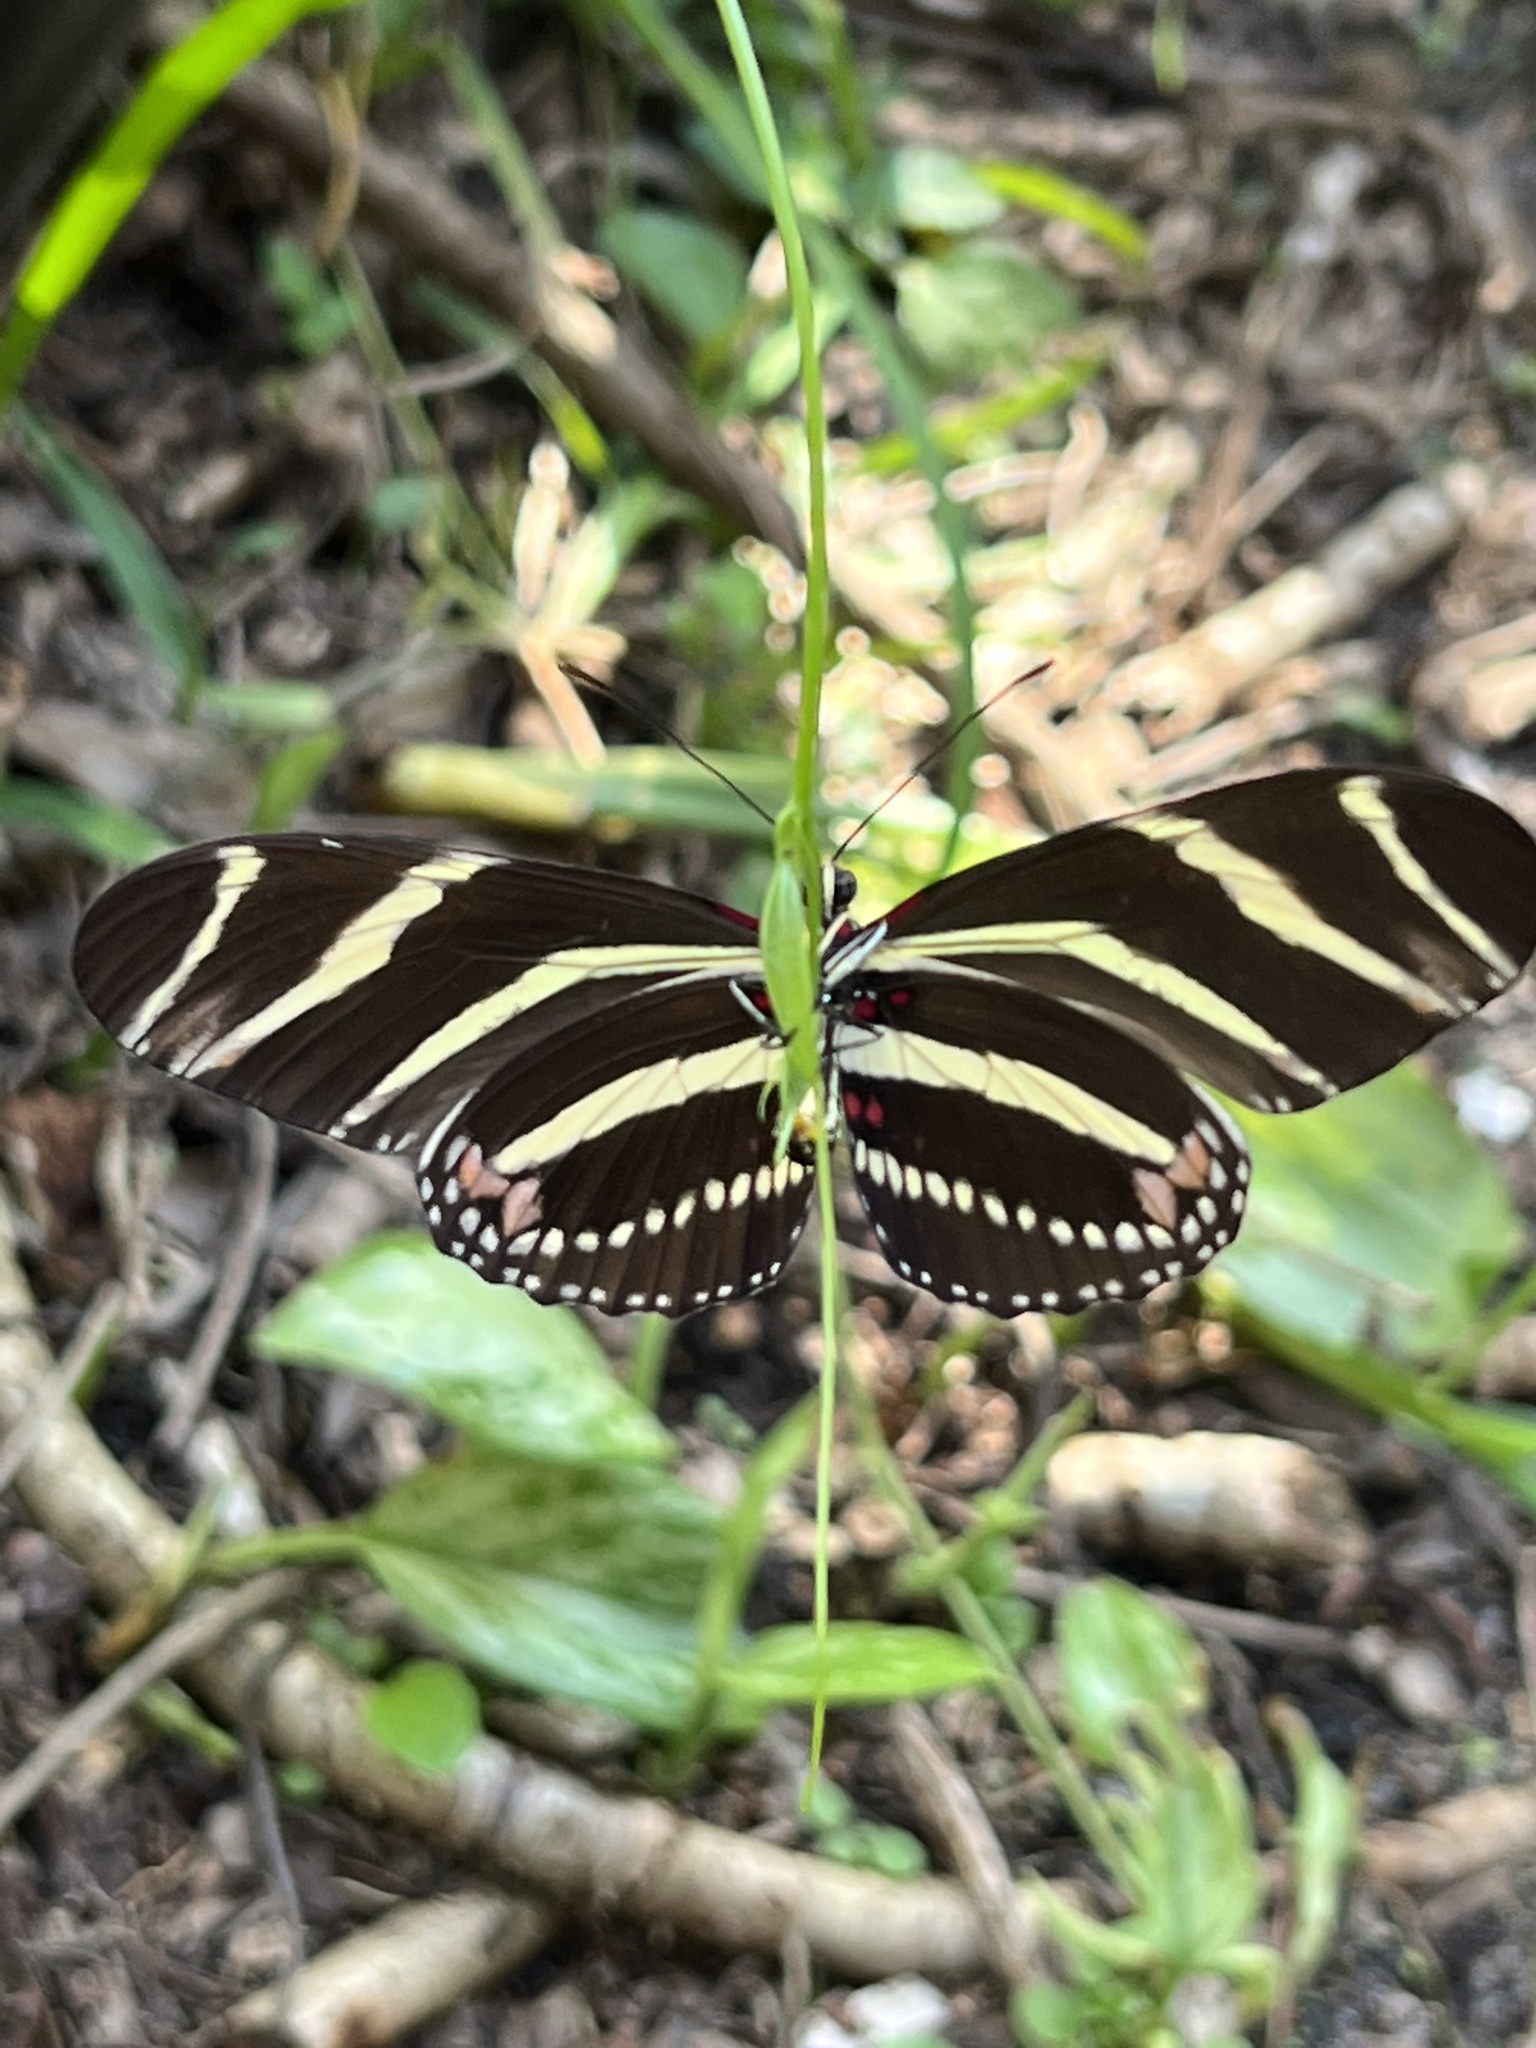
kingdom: Animalia
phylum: Arthropoda
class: Insecta
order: Lepidoptera
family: Nymphalidae
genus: Heliconius
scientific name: Heliconius charithonia
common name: Zebra long wing
